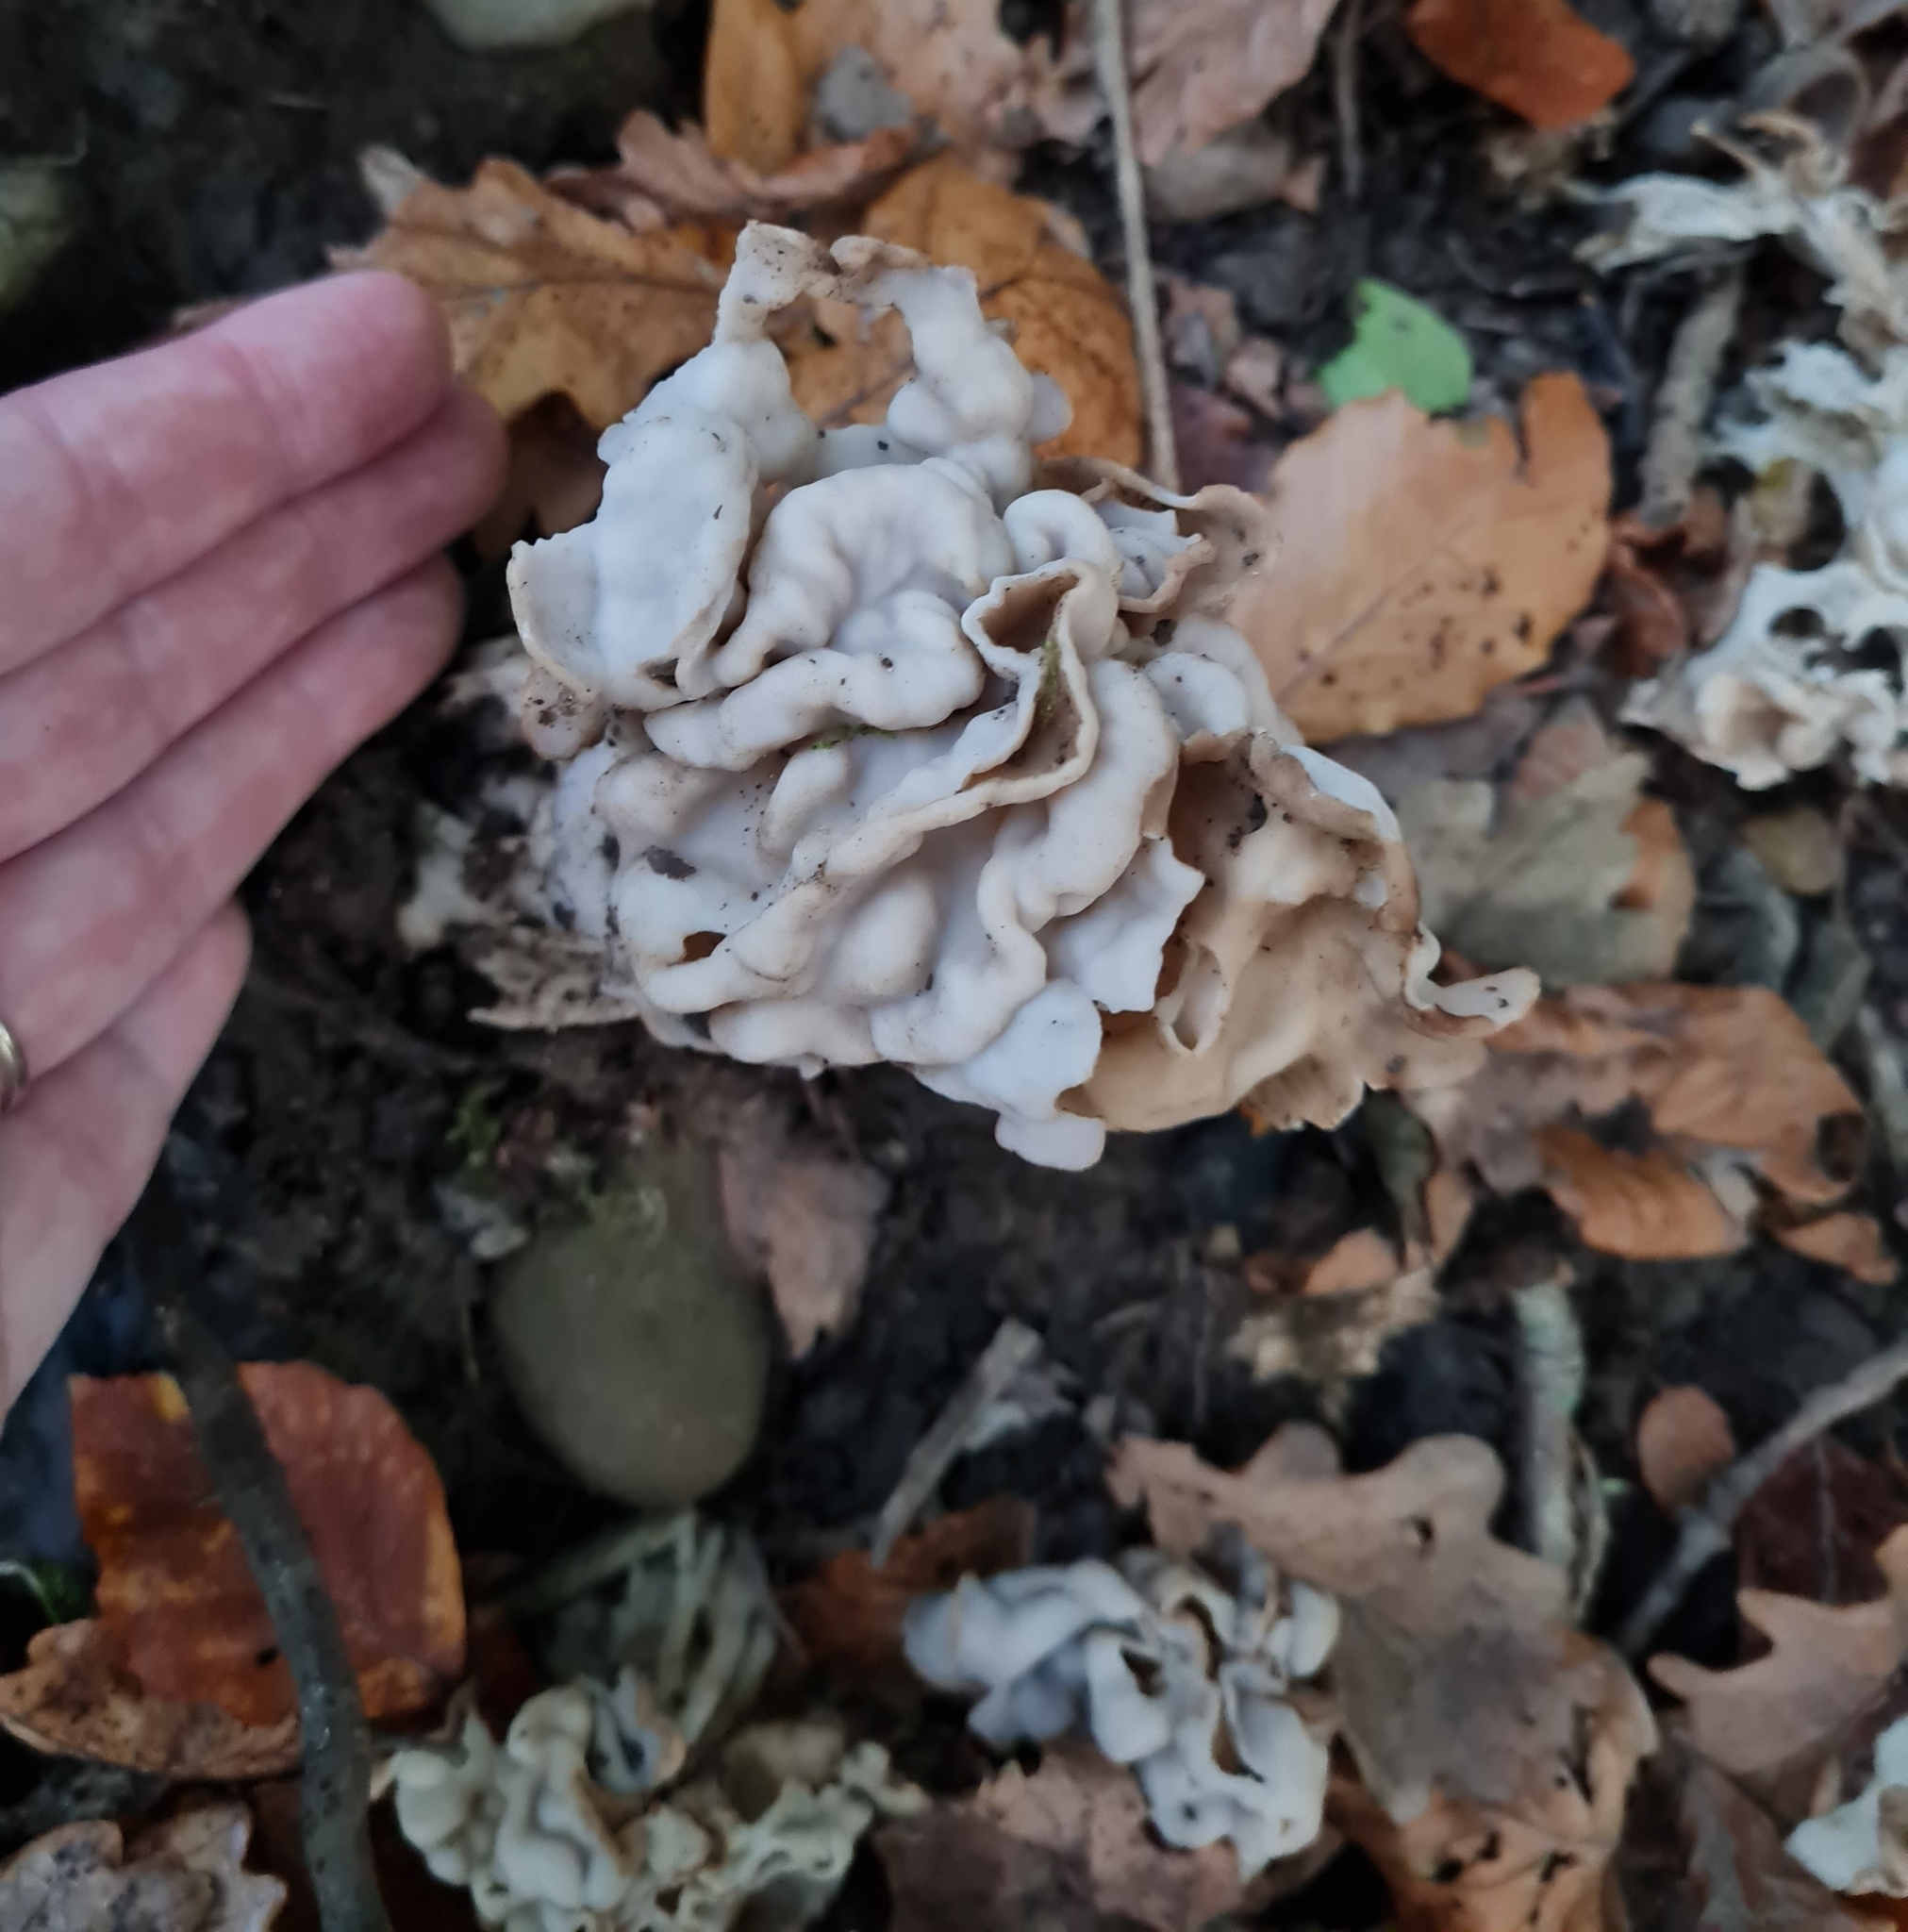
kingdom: Fungi
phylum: Ascomycota
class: Pezizomycetes
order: Pezizales
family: Helvellaceae
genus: Helvella
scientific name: Helvella crispa
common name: White saddle
